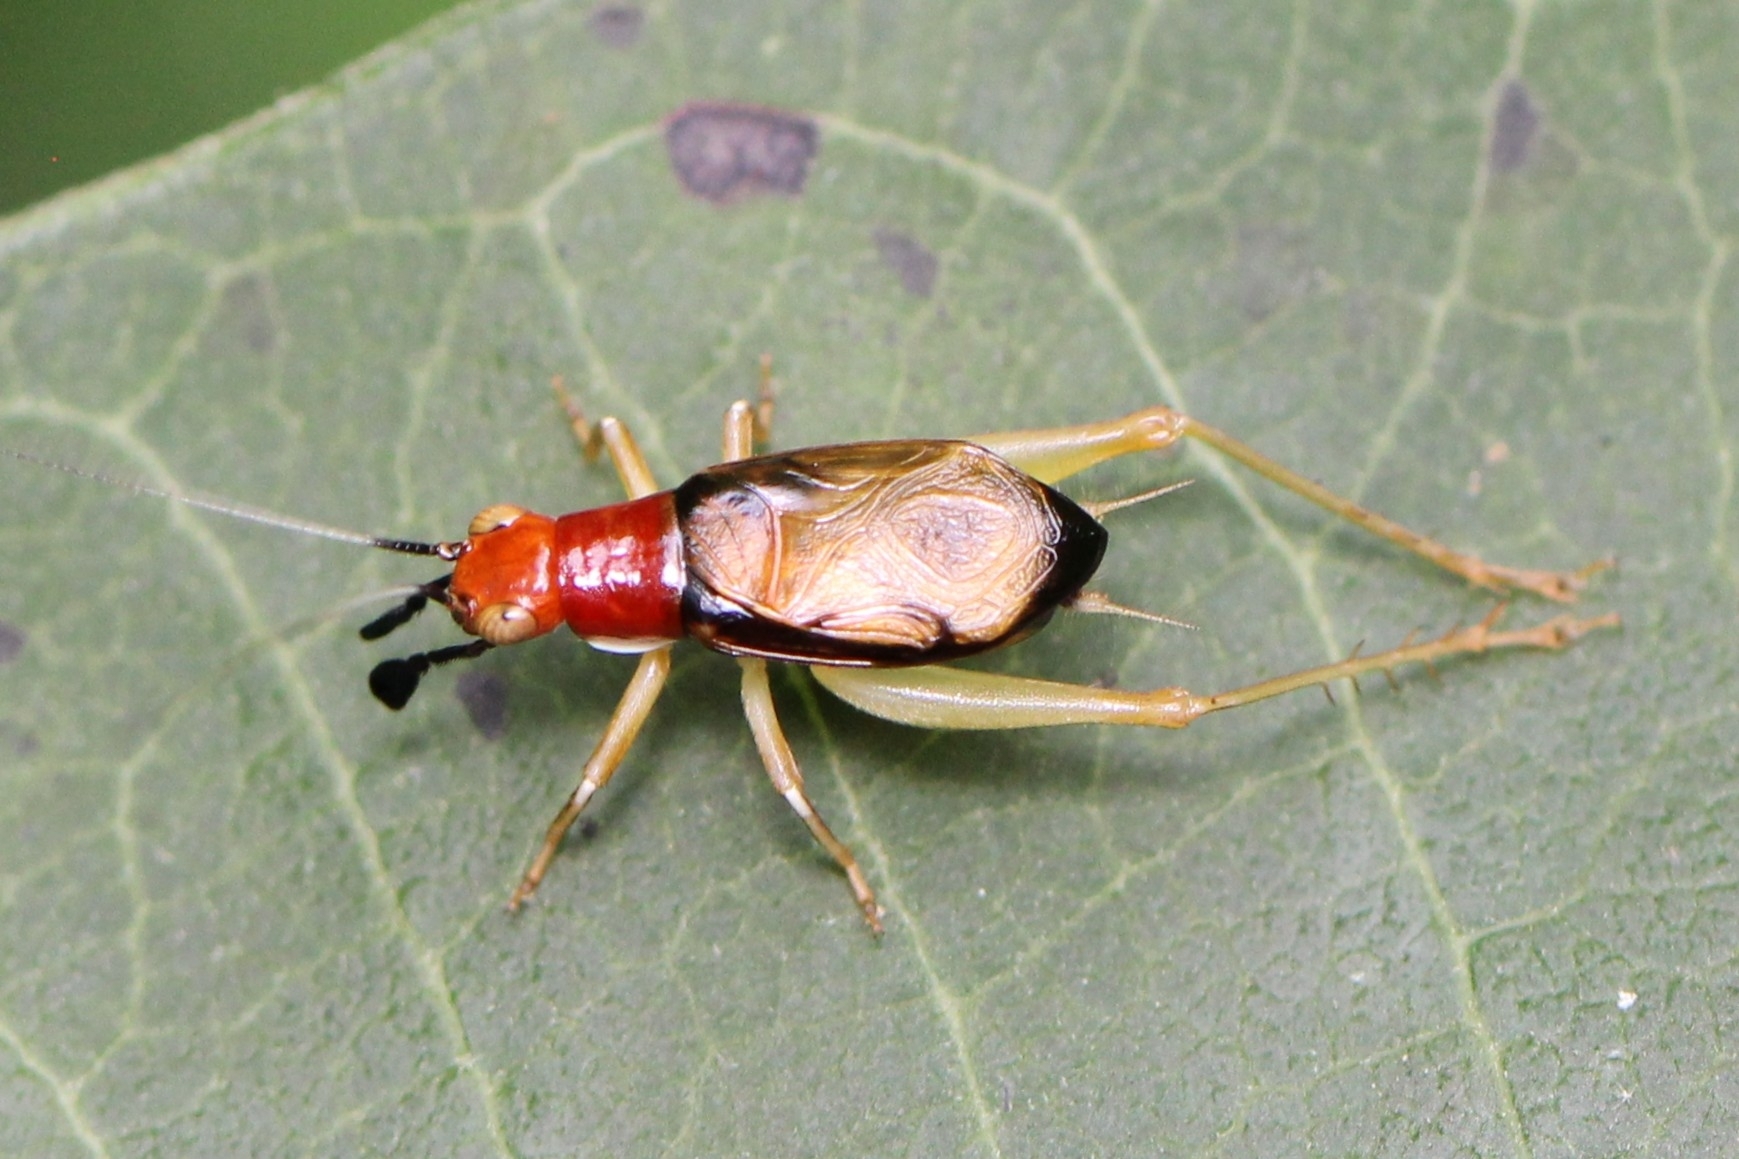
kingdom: Animalia
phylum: Arthropoda
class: Insecta
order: Orthoptera
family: Trigonidiidae
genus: Phyllopalpus
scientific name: Phyllopalpus pulchellus
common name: Handsome trig
